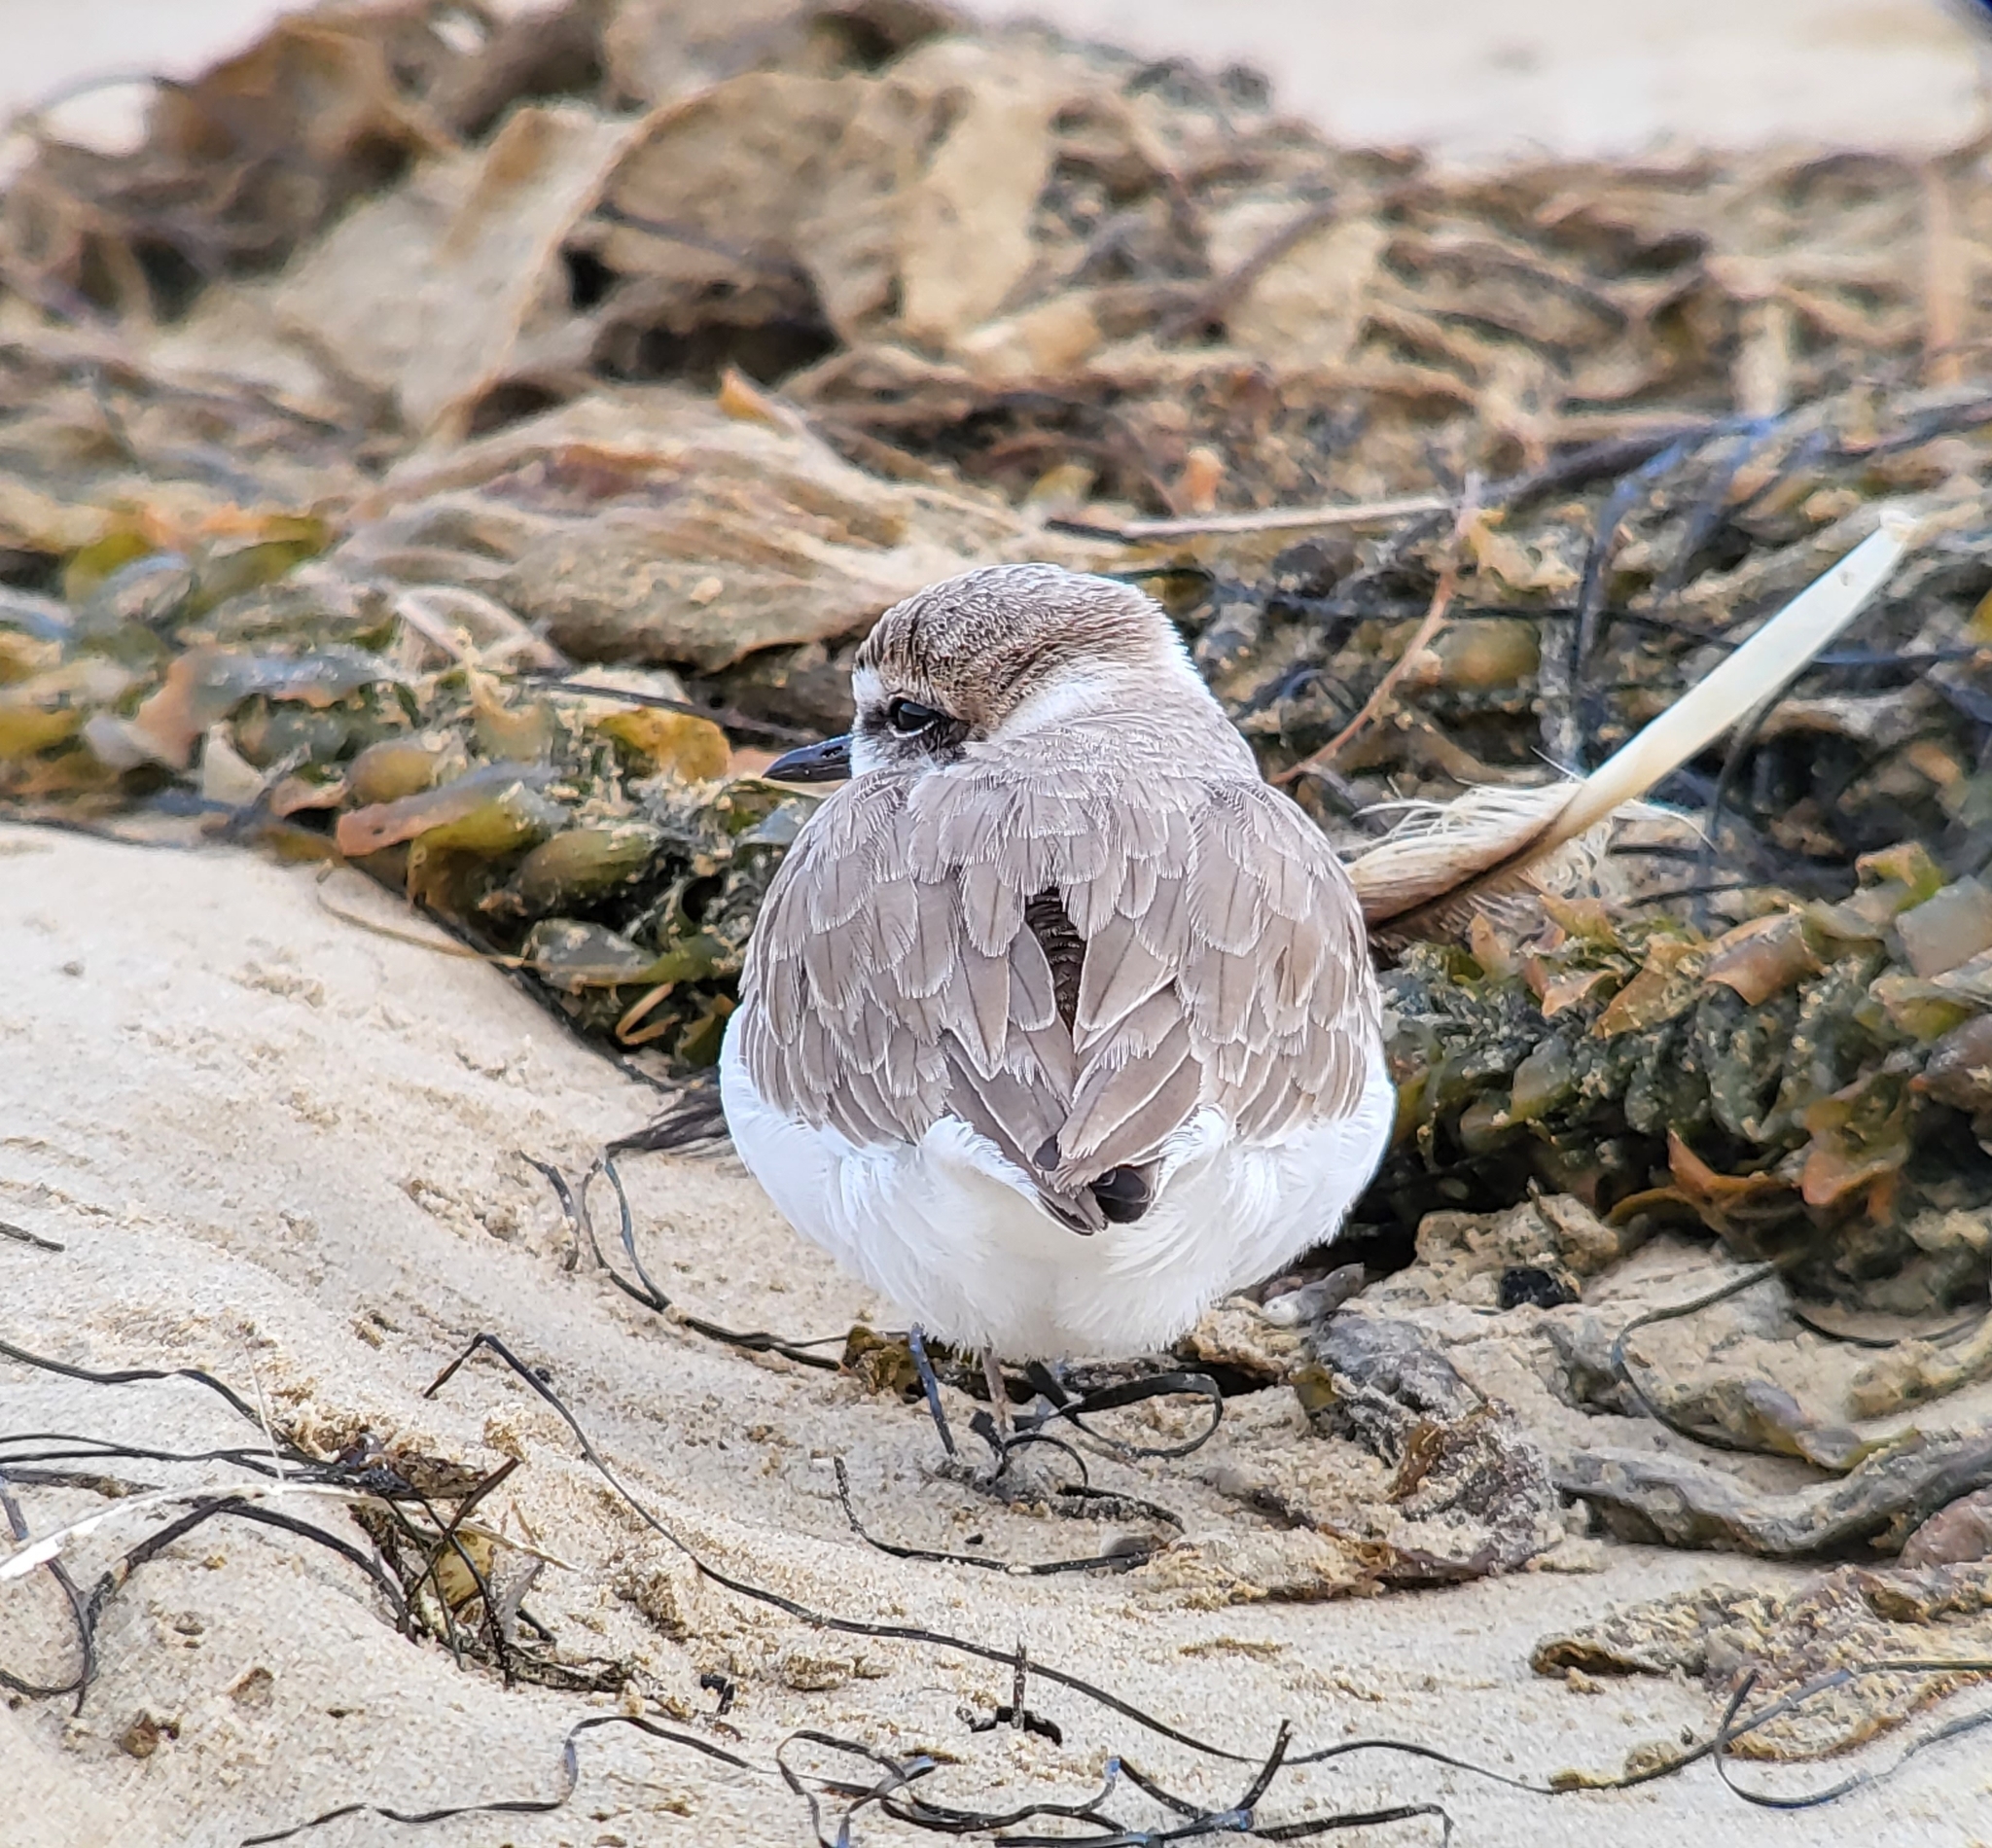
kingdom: Animalia
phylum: Chordata
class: Aves
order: Charadriiformes
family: Charadriidae
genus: Anarhynchus
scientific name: Anarhynchus
